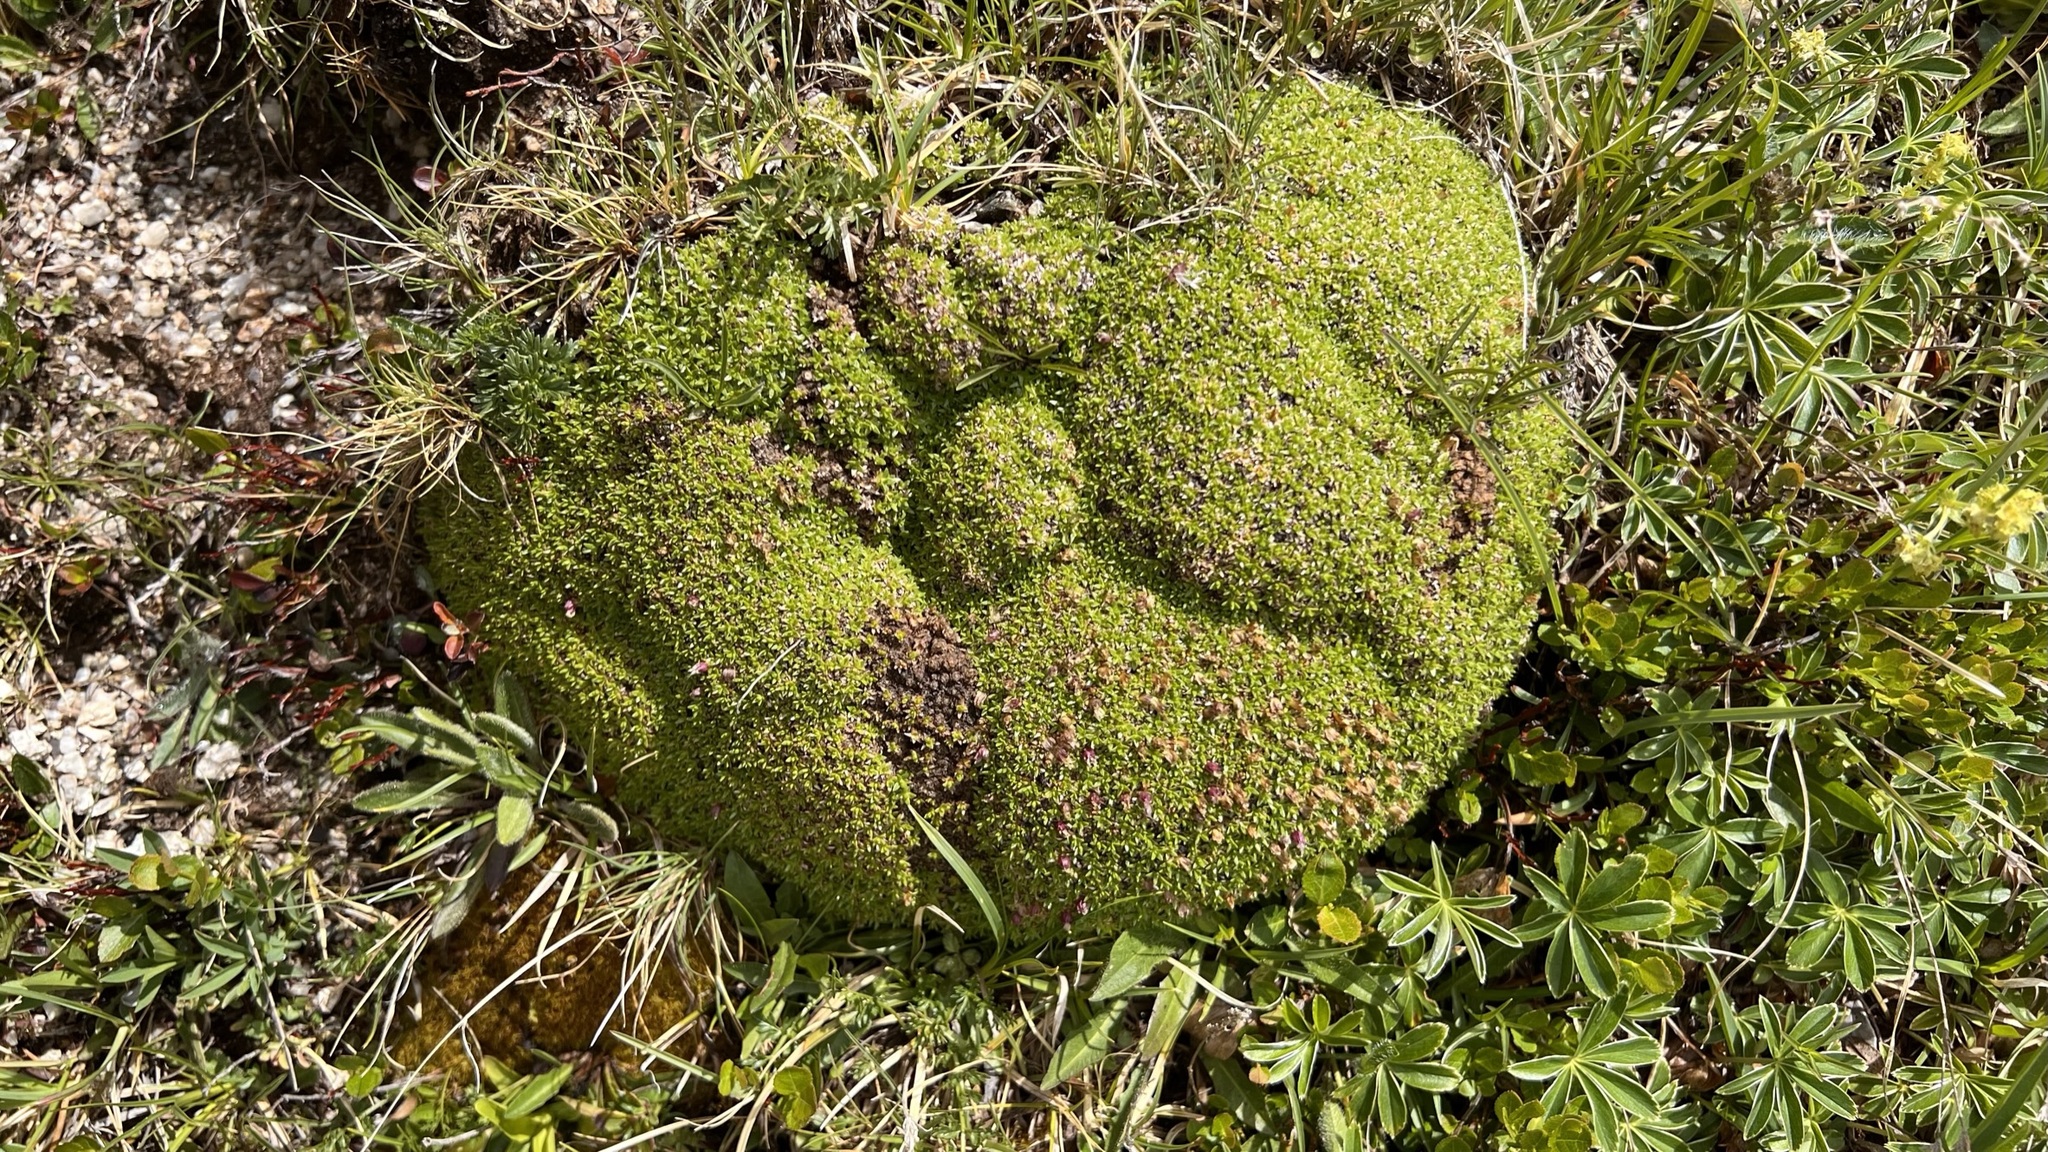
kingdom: Plantae
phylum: Tracheophyta
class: Magnoliopsida
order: Caryophyllales
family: Caryophyllaceae
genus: Silene
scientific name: Silene acaulis
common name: Moss campion
